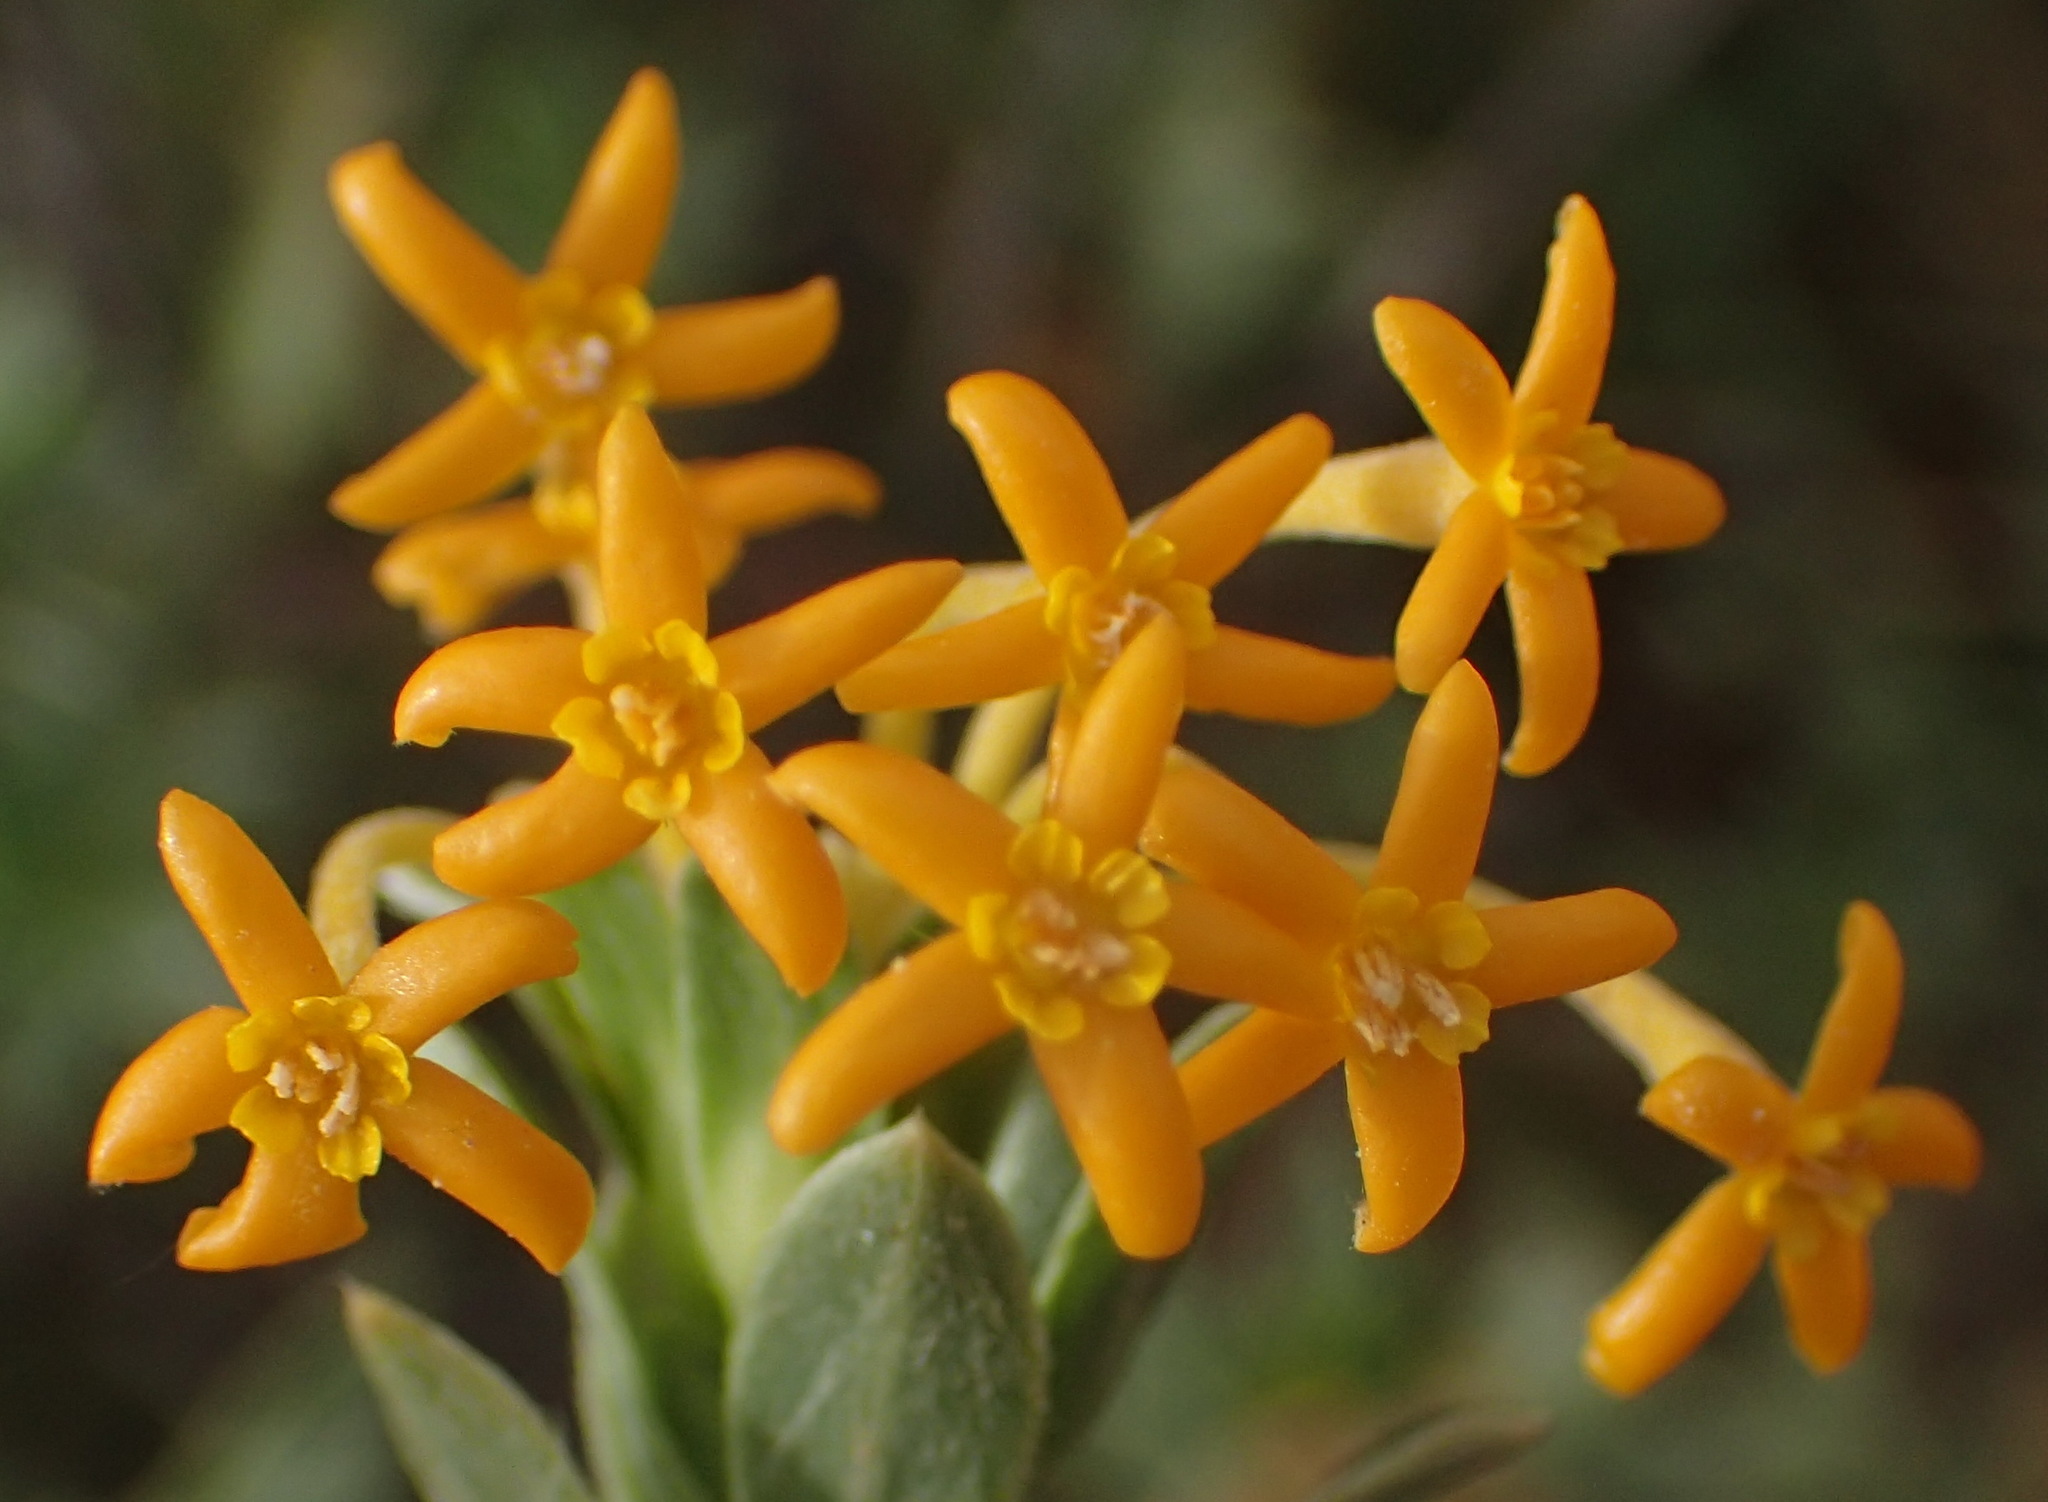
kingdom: Plantae
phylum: Tracheophyta
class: Magnoliopsida
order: Malvales
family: Thymelaeaceae
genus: Gnidia
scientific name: Gnidia cuneata
